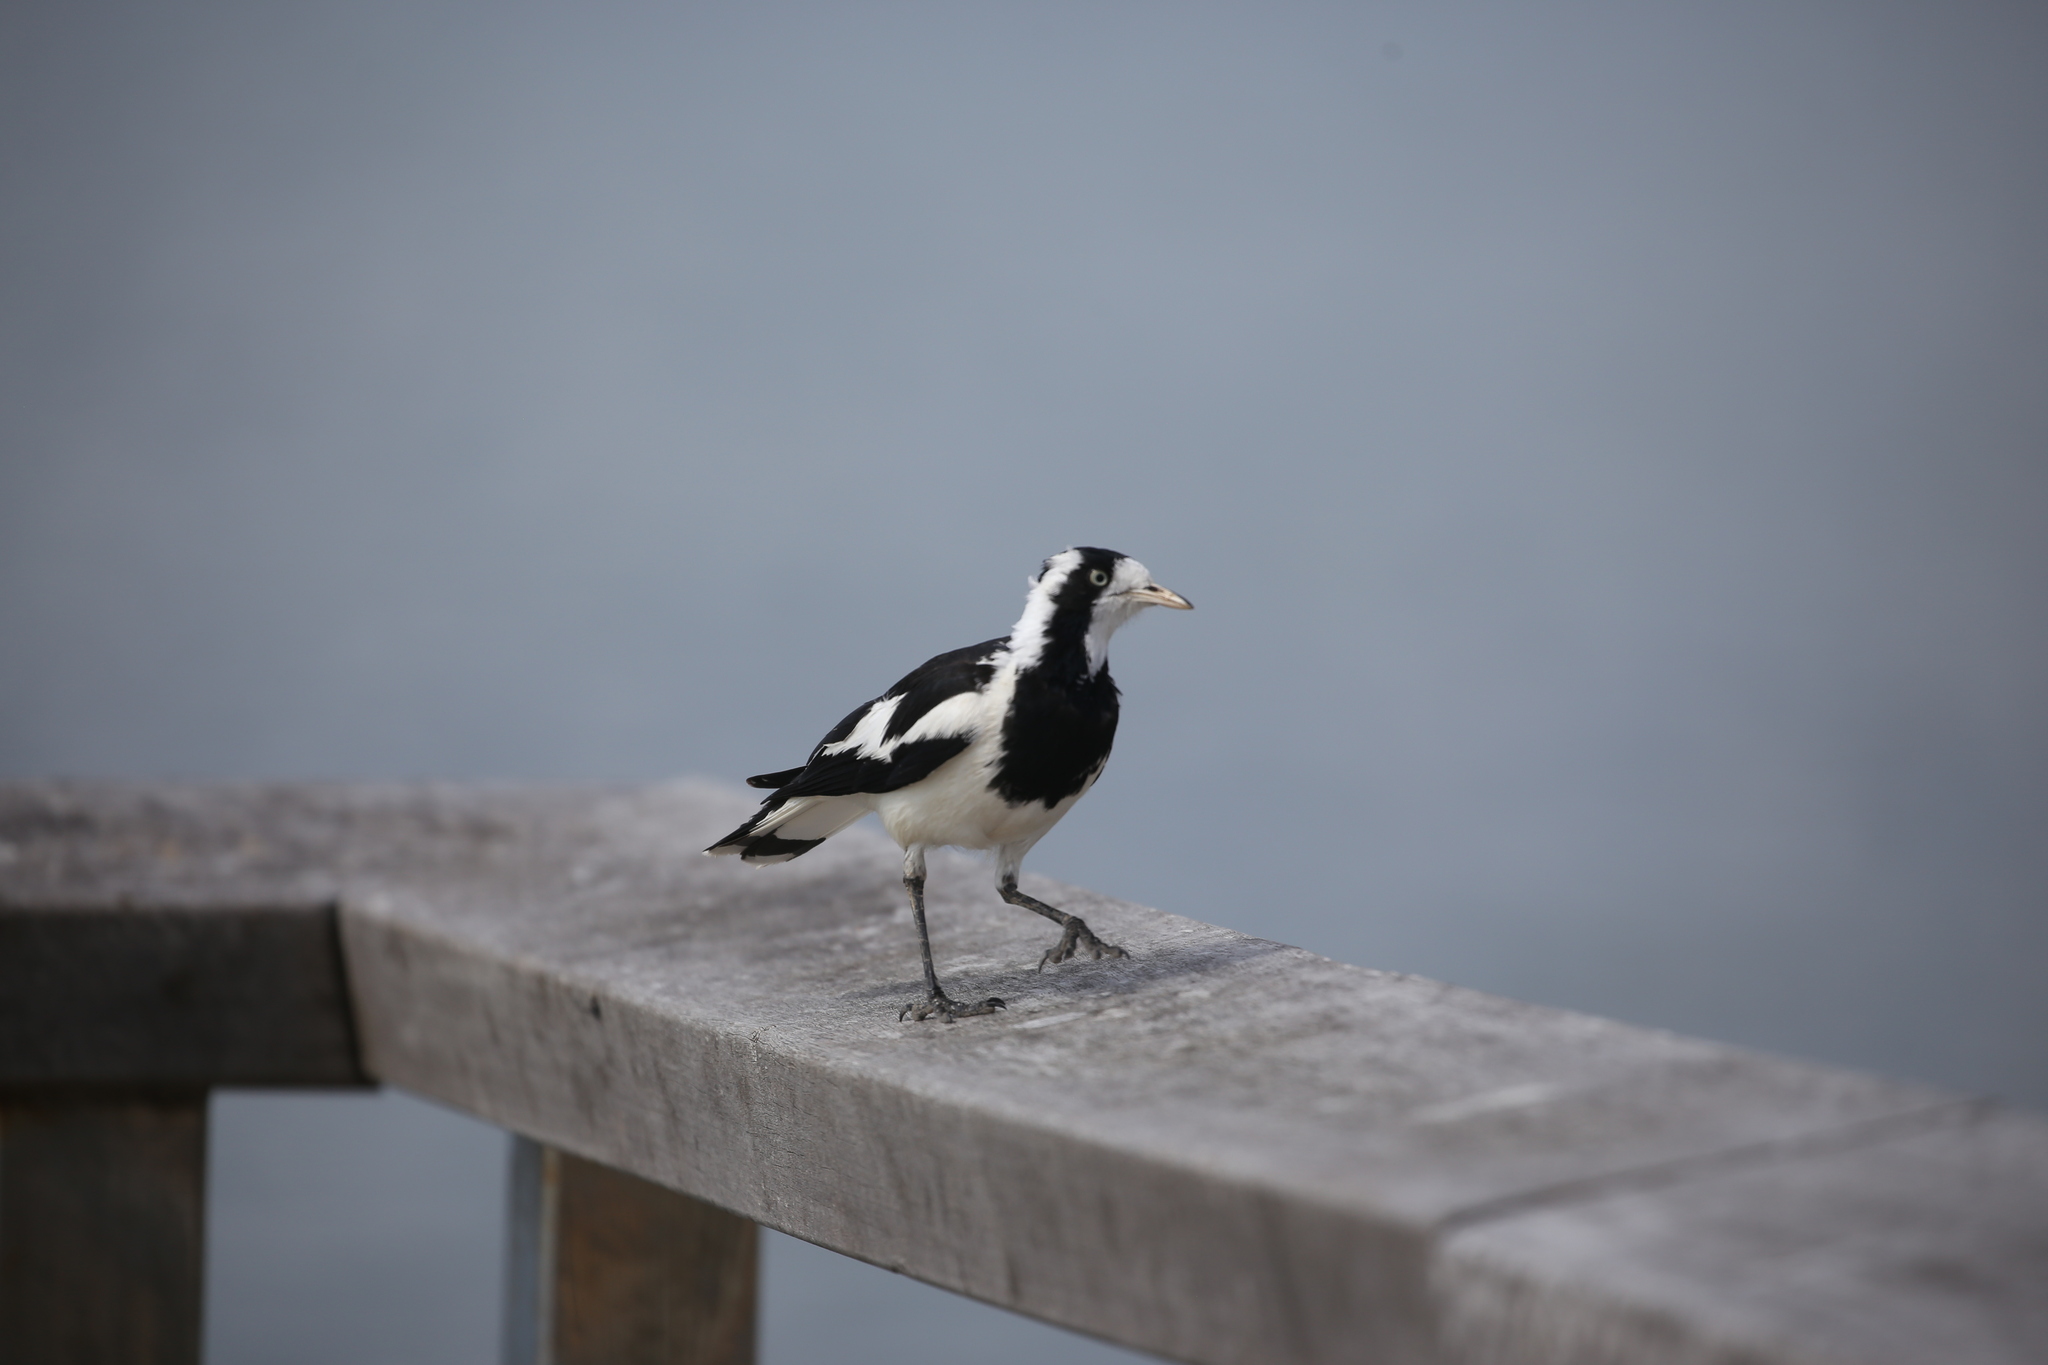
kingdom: Animalia
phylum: Chordata
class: Aves
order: Passeriformes
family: Monarchidae
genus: Grallina
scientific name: Grallina cyanoleuca
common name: Magpie-lark
